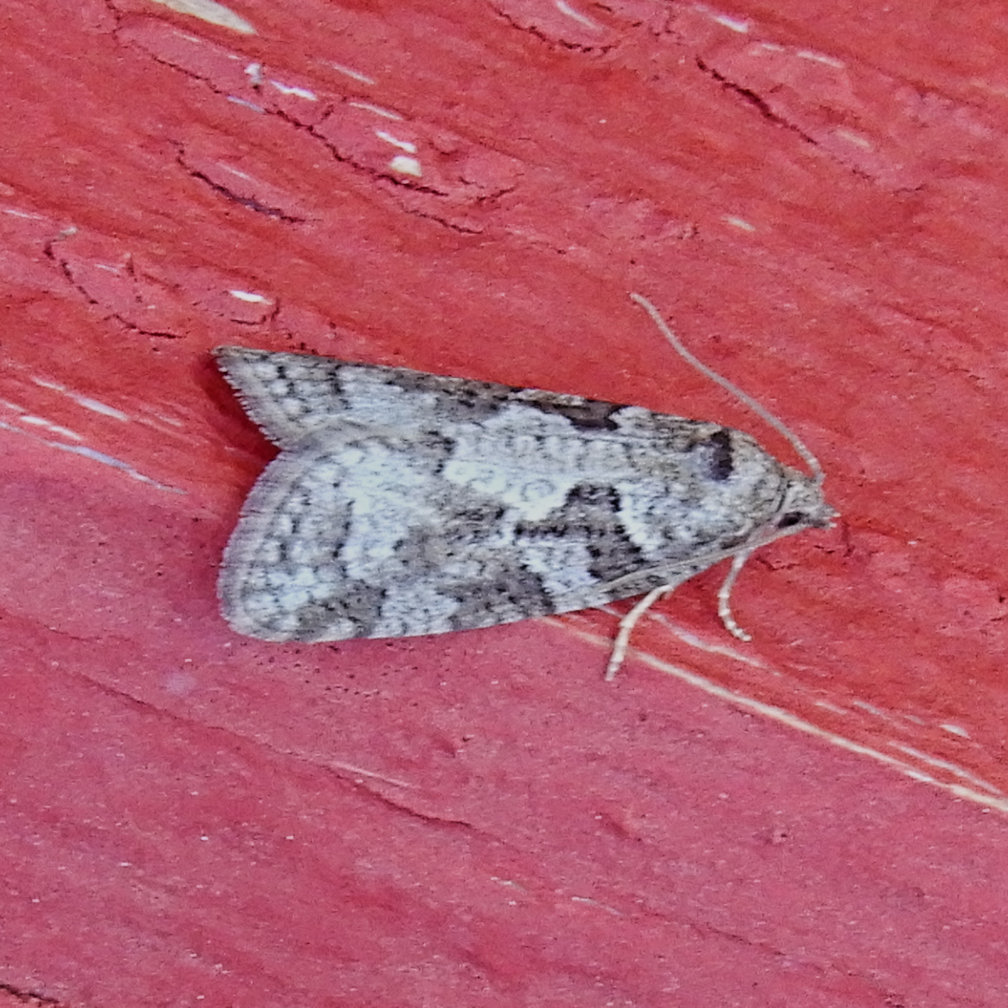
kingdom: Animalia
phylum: Arthropoda
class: Insecta
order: Lepidoptera
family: Tortricidae
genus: Cnephasia
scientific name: Cnephasia stephensiana
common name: Grey tortrix
